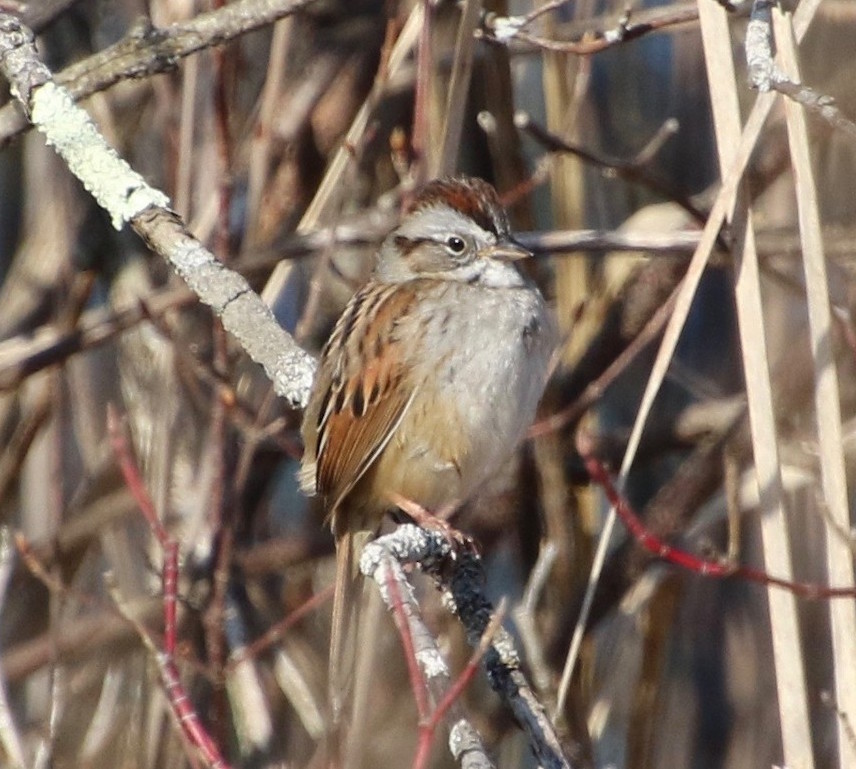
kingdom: Animalia
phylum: Chordata
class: Aves
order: Passeriformes
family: Passerellidae
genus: Melospiza
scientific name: Melospiza georgiana
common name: Swamp sparrow
